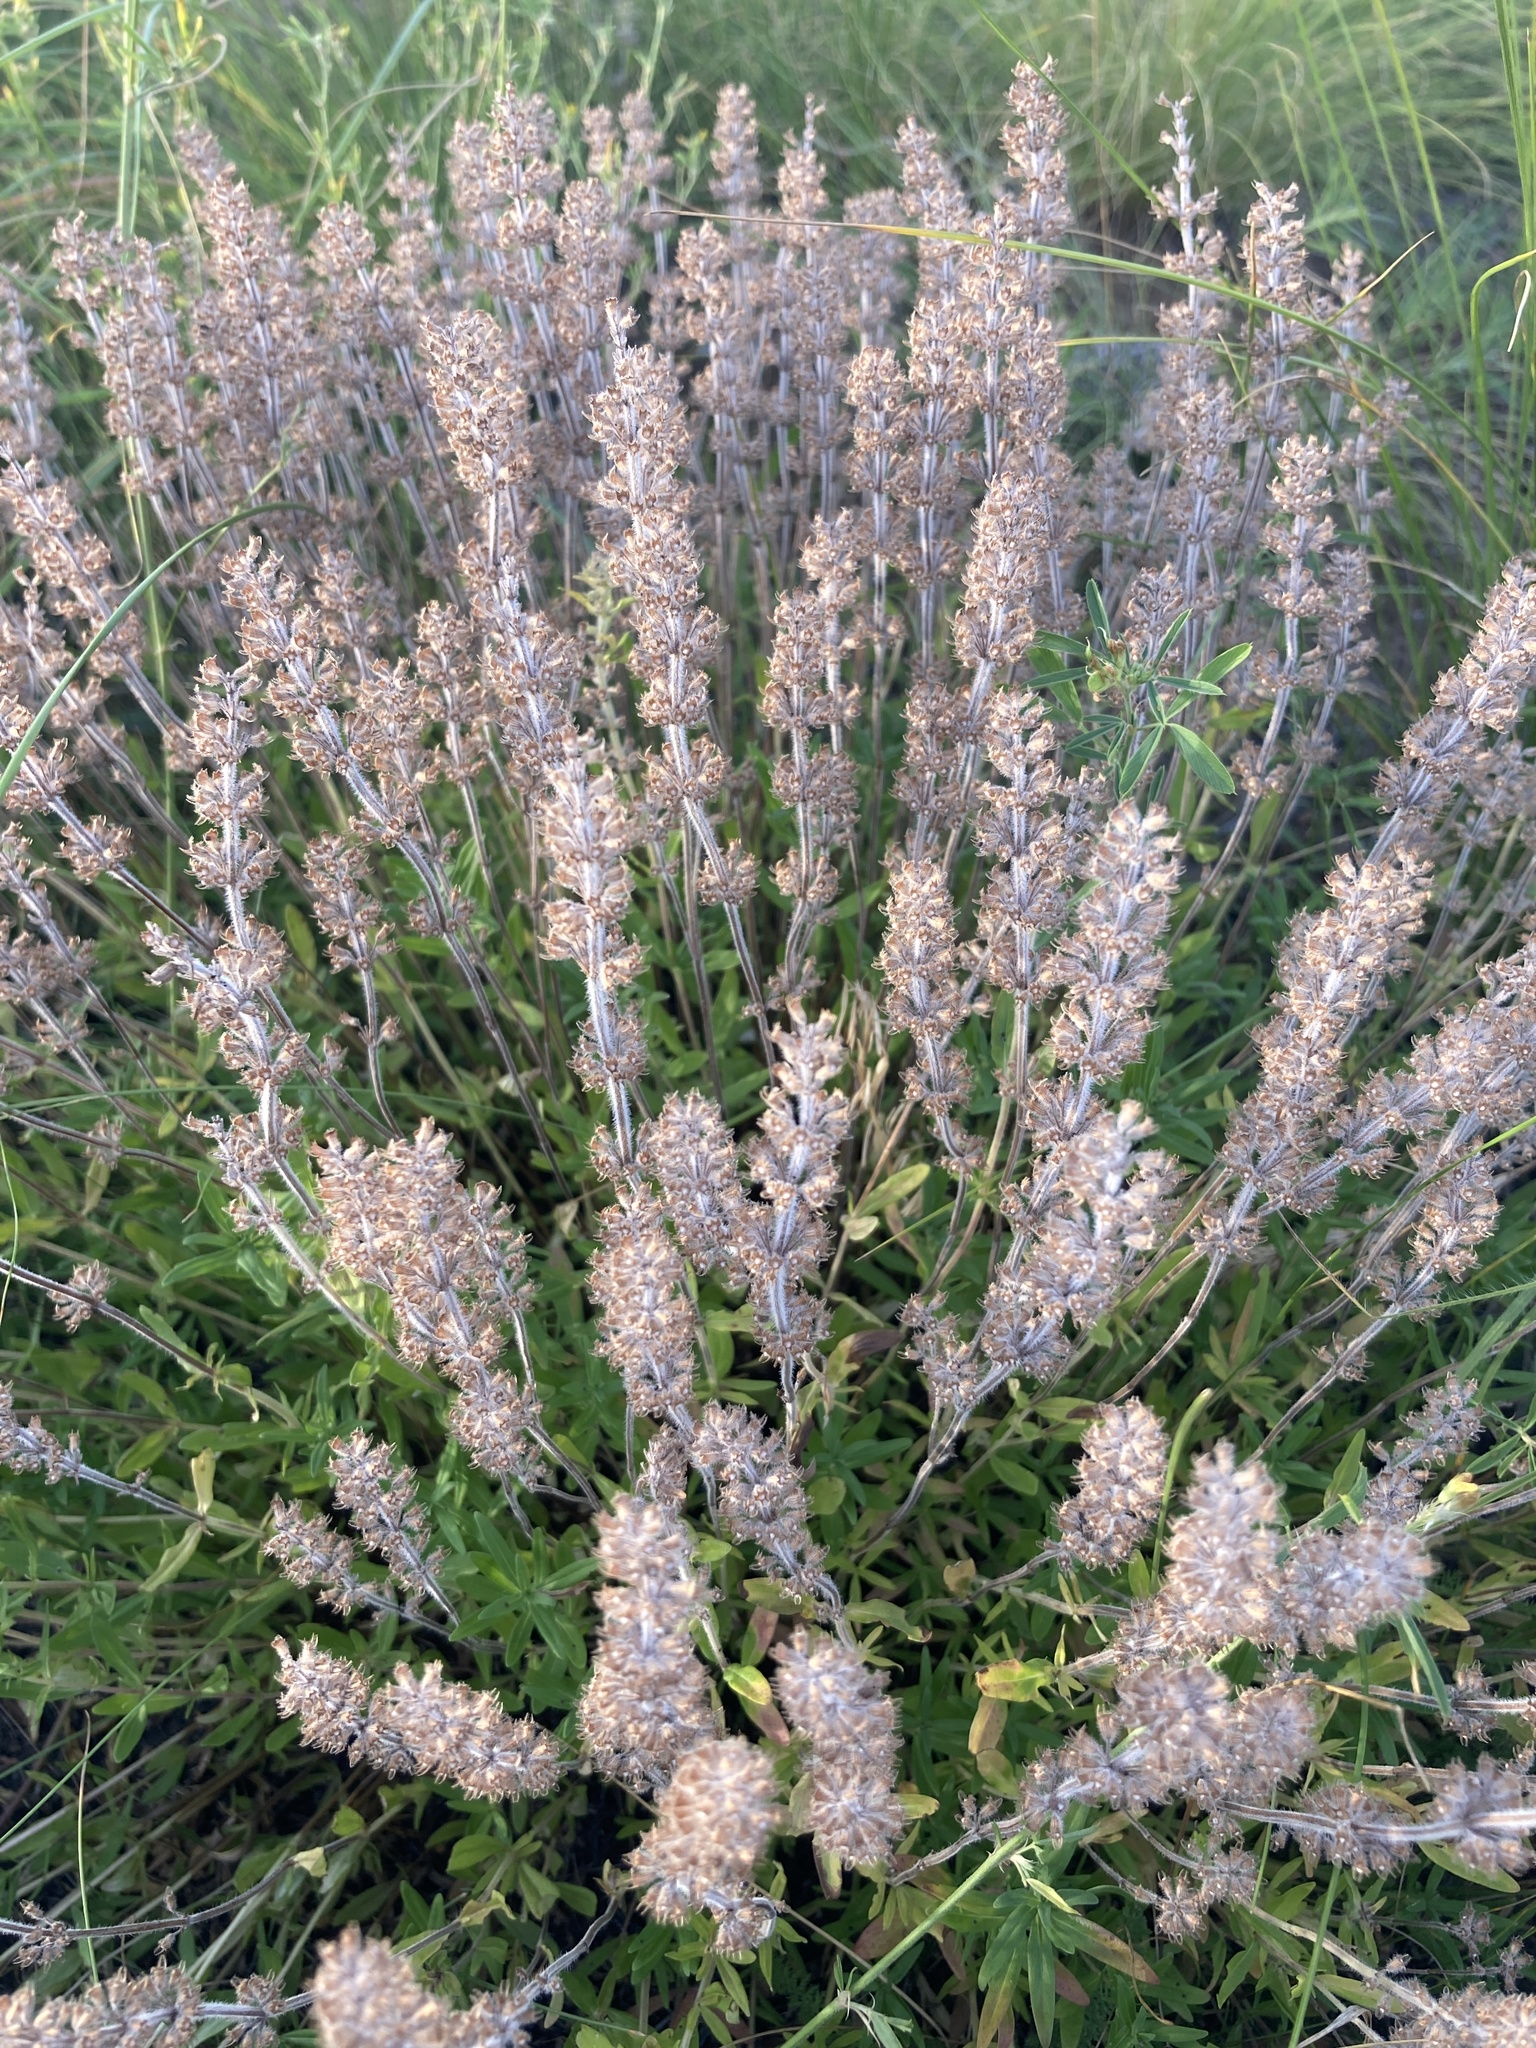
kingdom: Plantae
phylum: Tracheophyta
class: Magnoliopsida
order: Lamiales
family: Lamiaceae
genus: Thymus
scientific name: Thymus pannonicus
